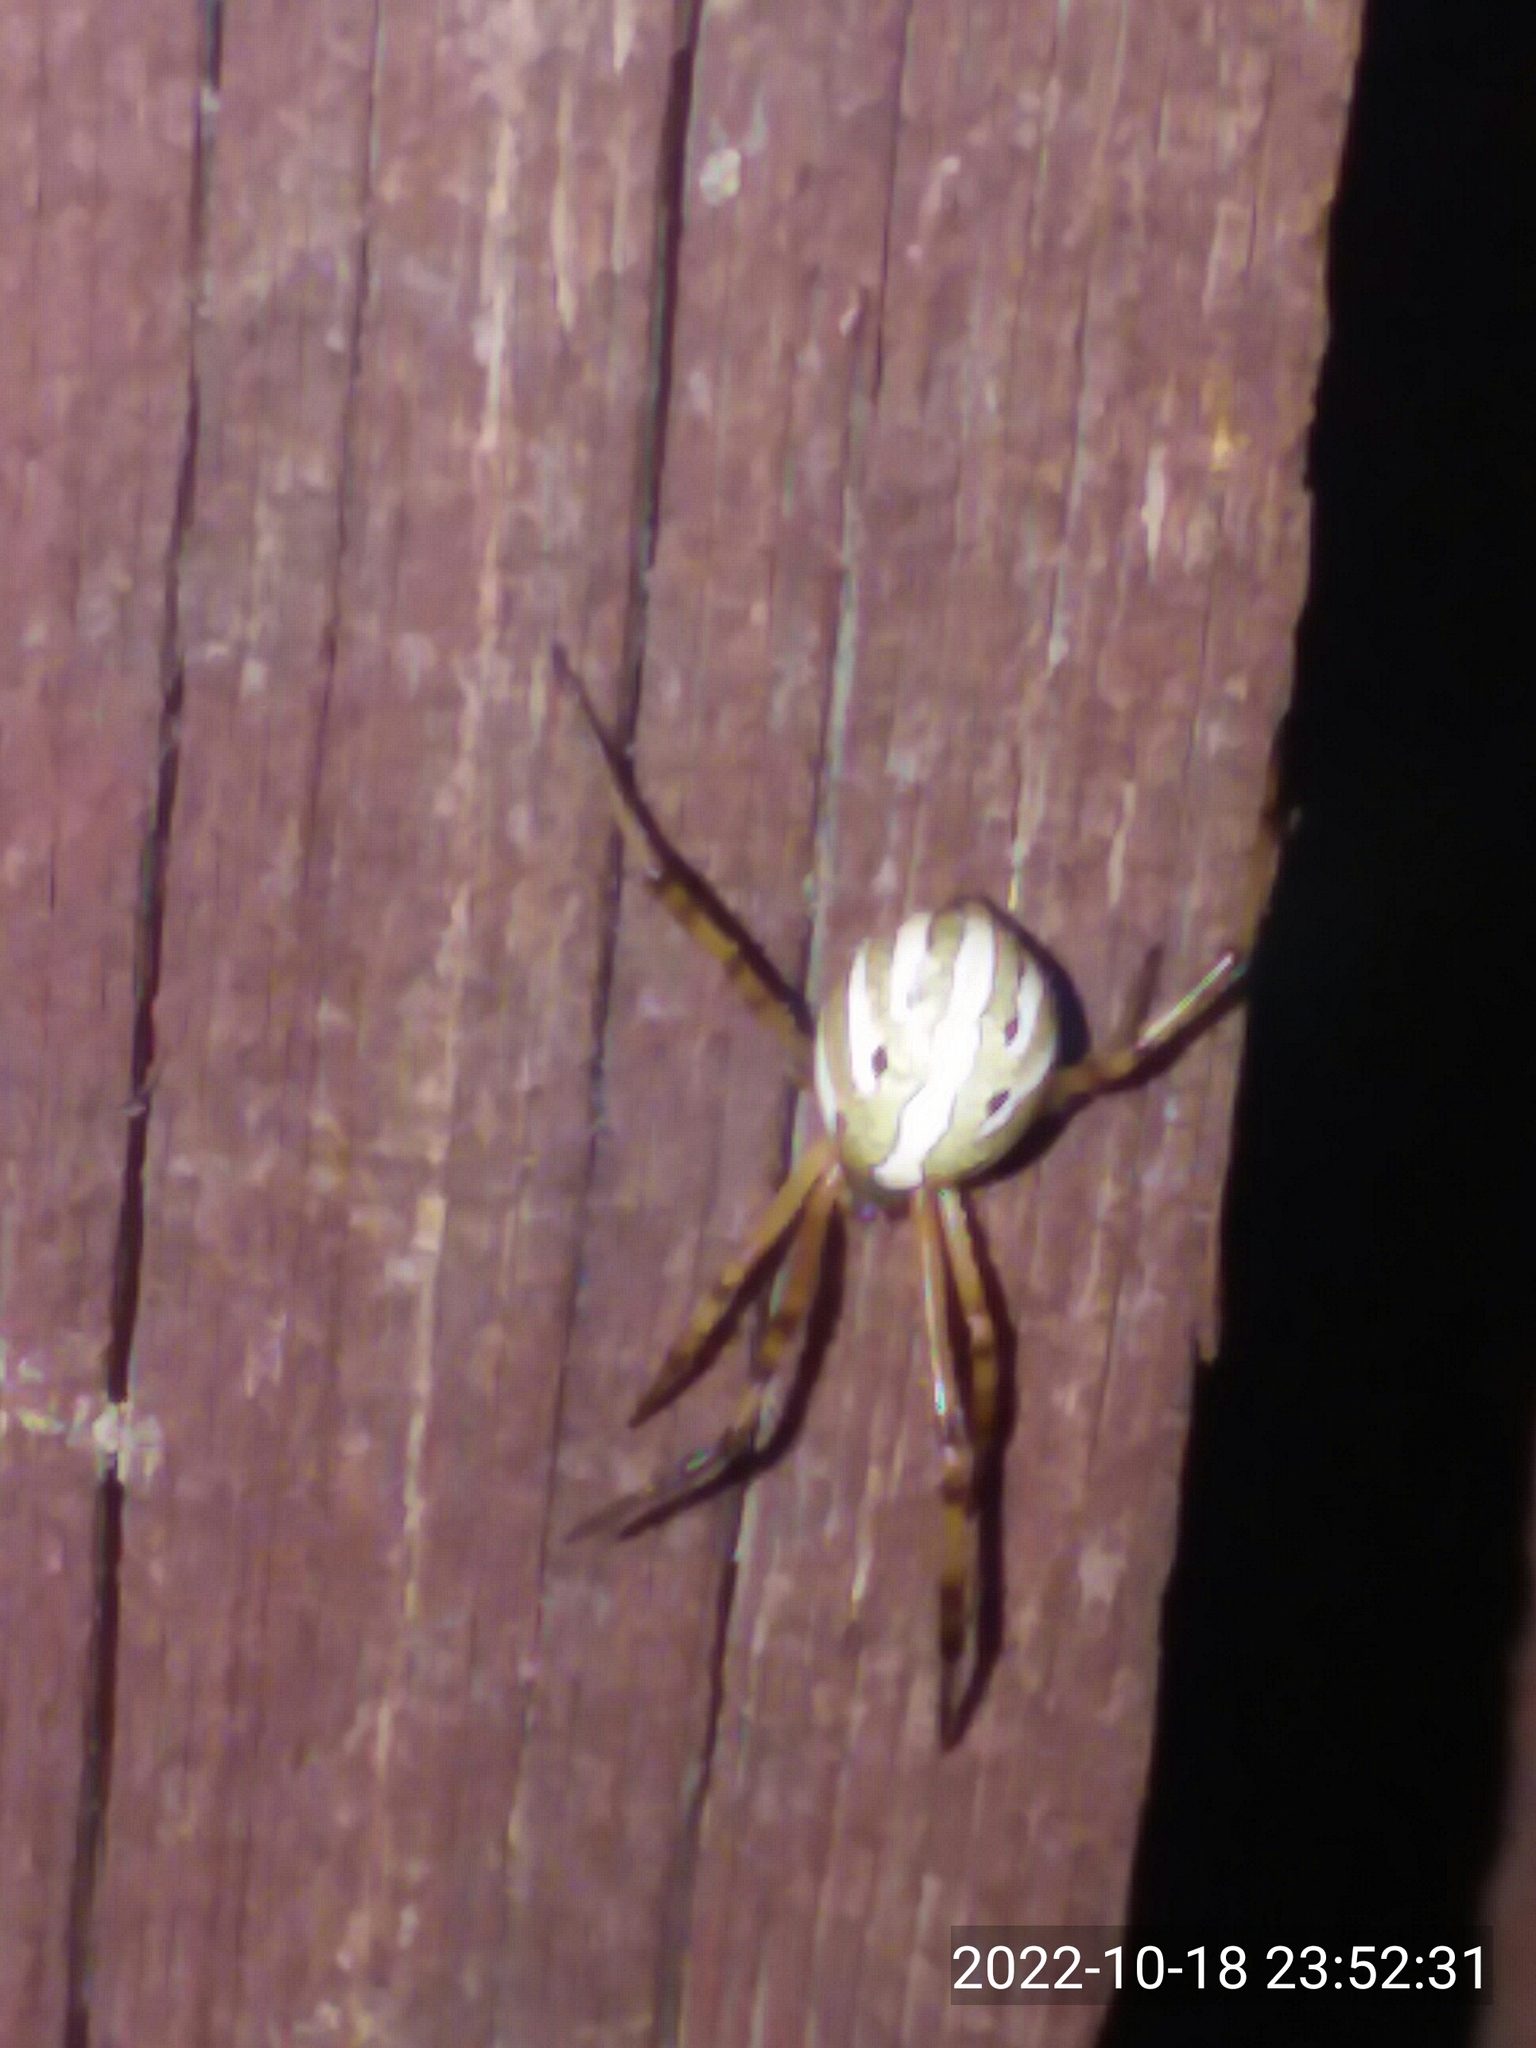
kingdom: Animalia
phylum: Arthropoda
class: Arachnida
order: Araneae
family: Theridiidae
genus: Latrodectus
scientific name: Latrodectus hesperus
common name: Western black widow
